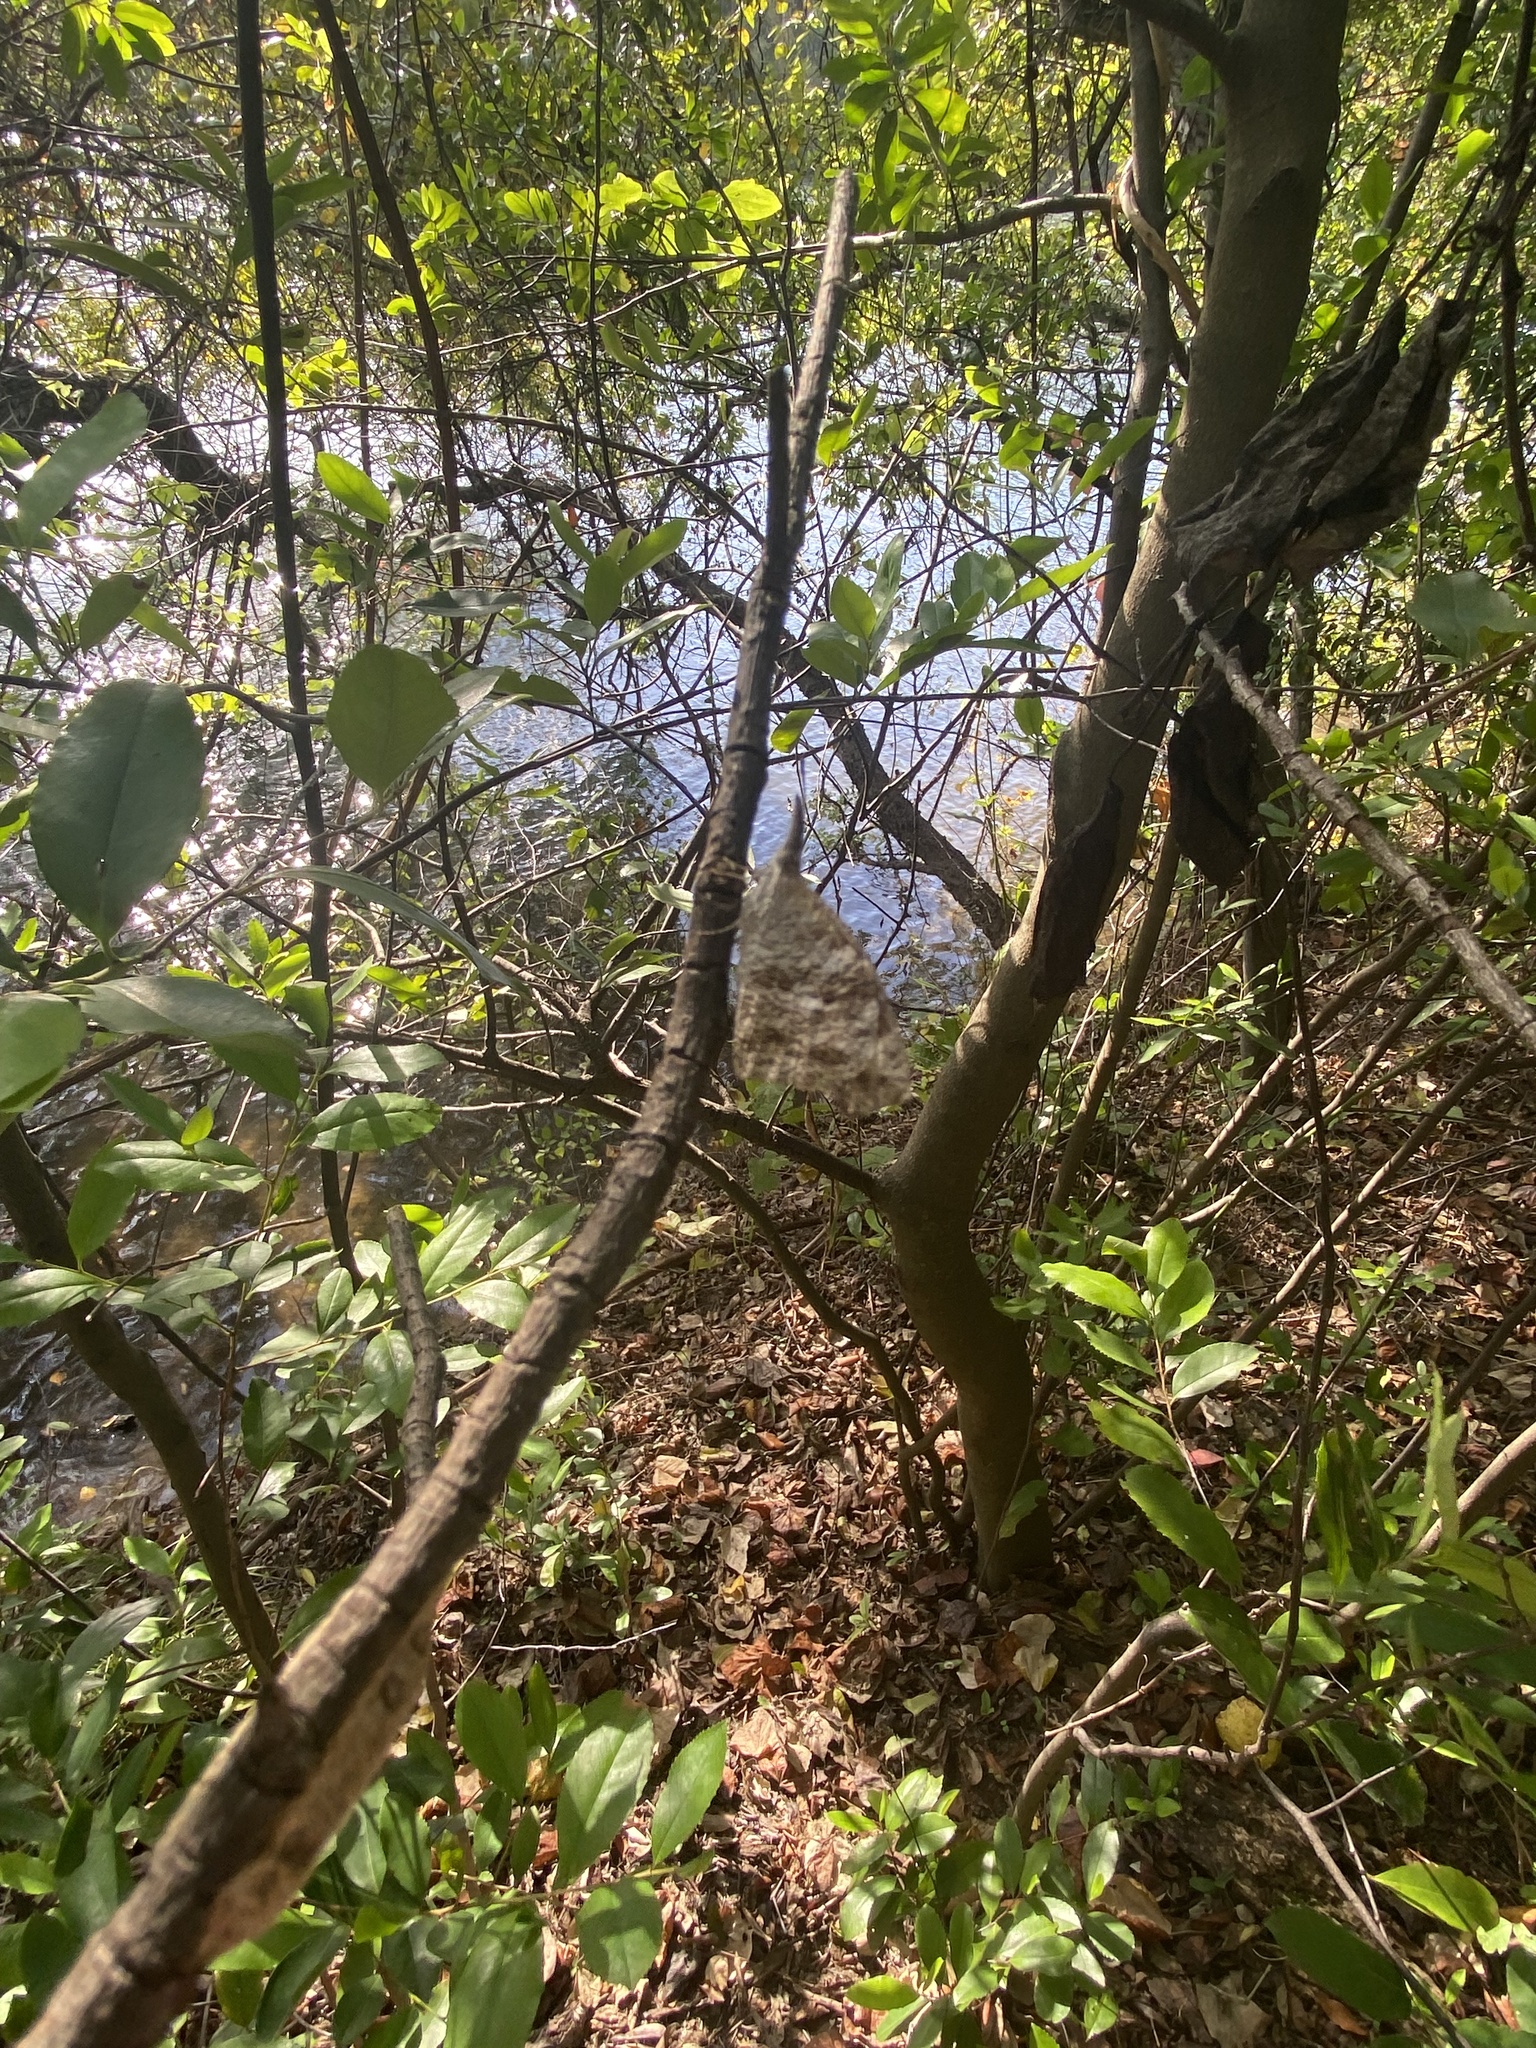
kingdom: Animalia
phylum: Arthropoda
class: Insecta
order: Lepidoptera
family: Nymphalidae
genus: Libytheana
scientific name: Libytheana carinenta
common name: American snout
